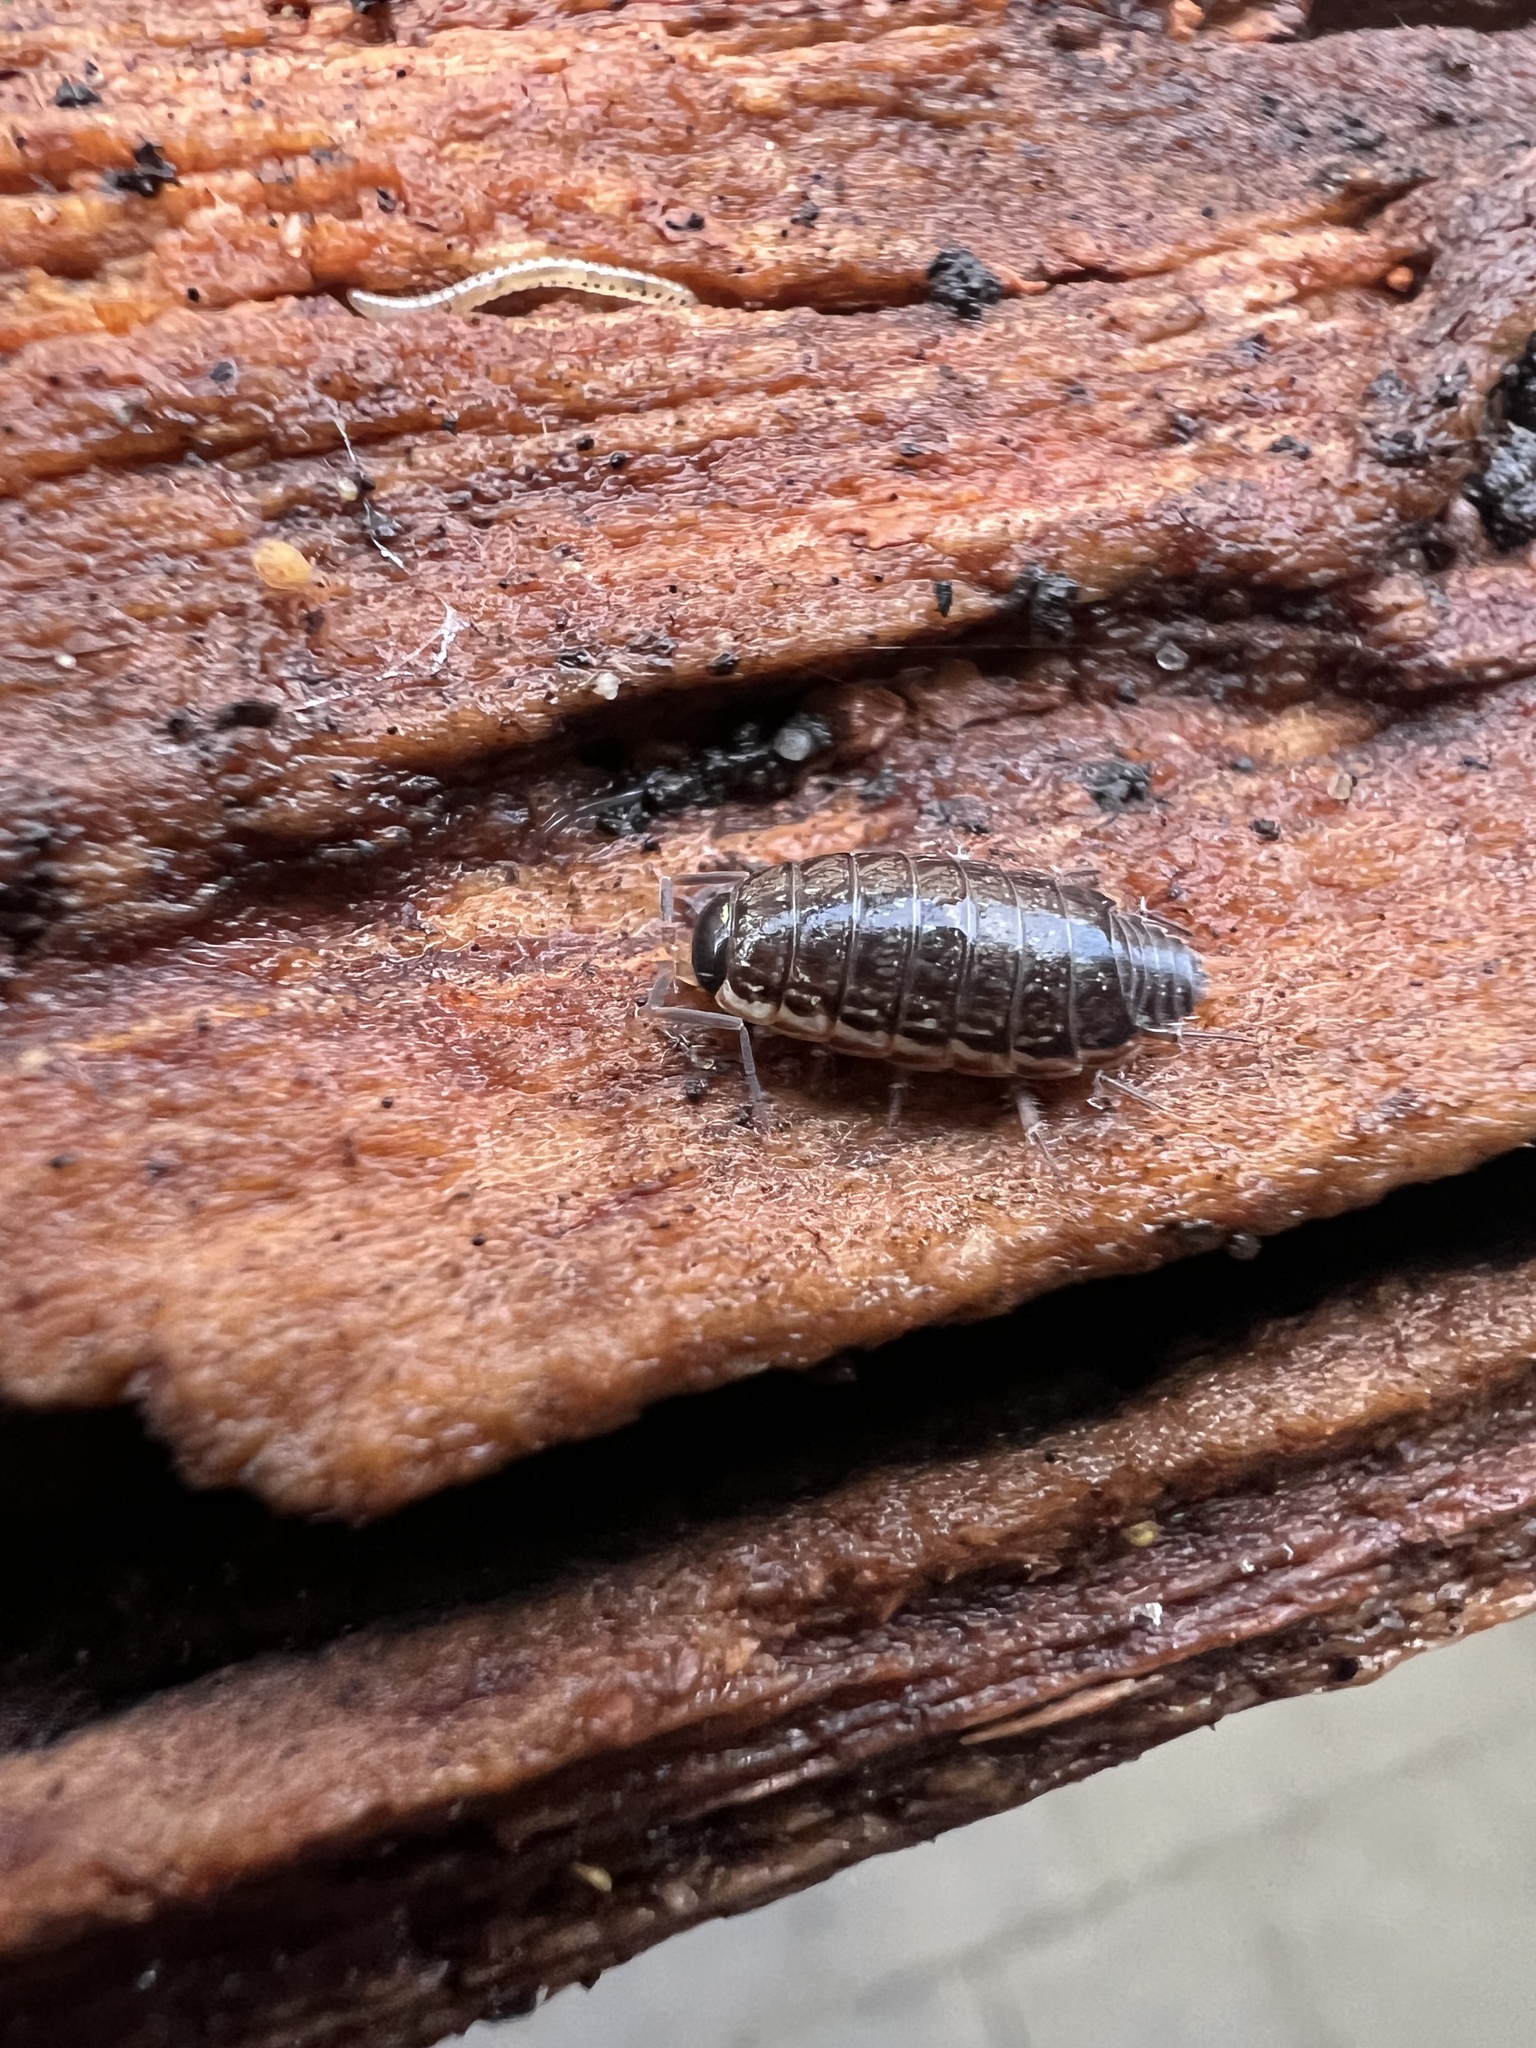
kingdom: Animalia
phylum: Arthropoda
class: Malacostraca
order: Isopoda
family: Philosciidae
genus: Philoscia
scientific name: Philoscia muscorum
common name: Common striped woodlouse
